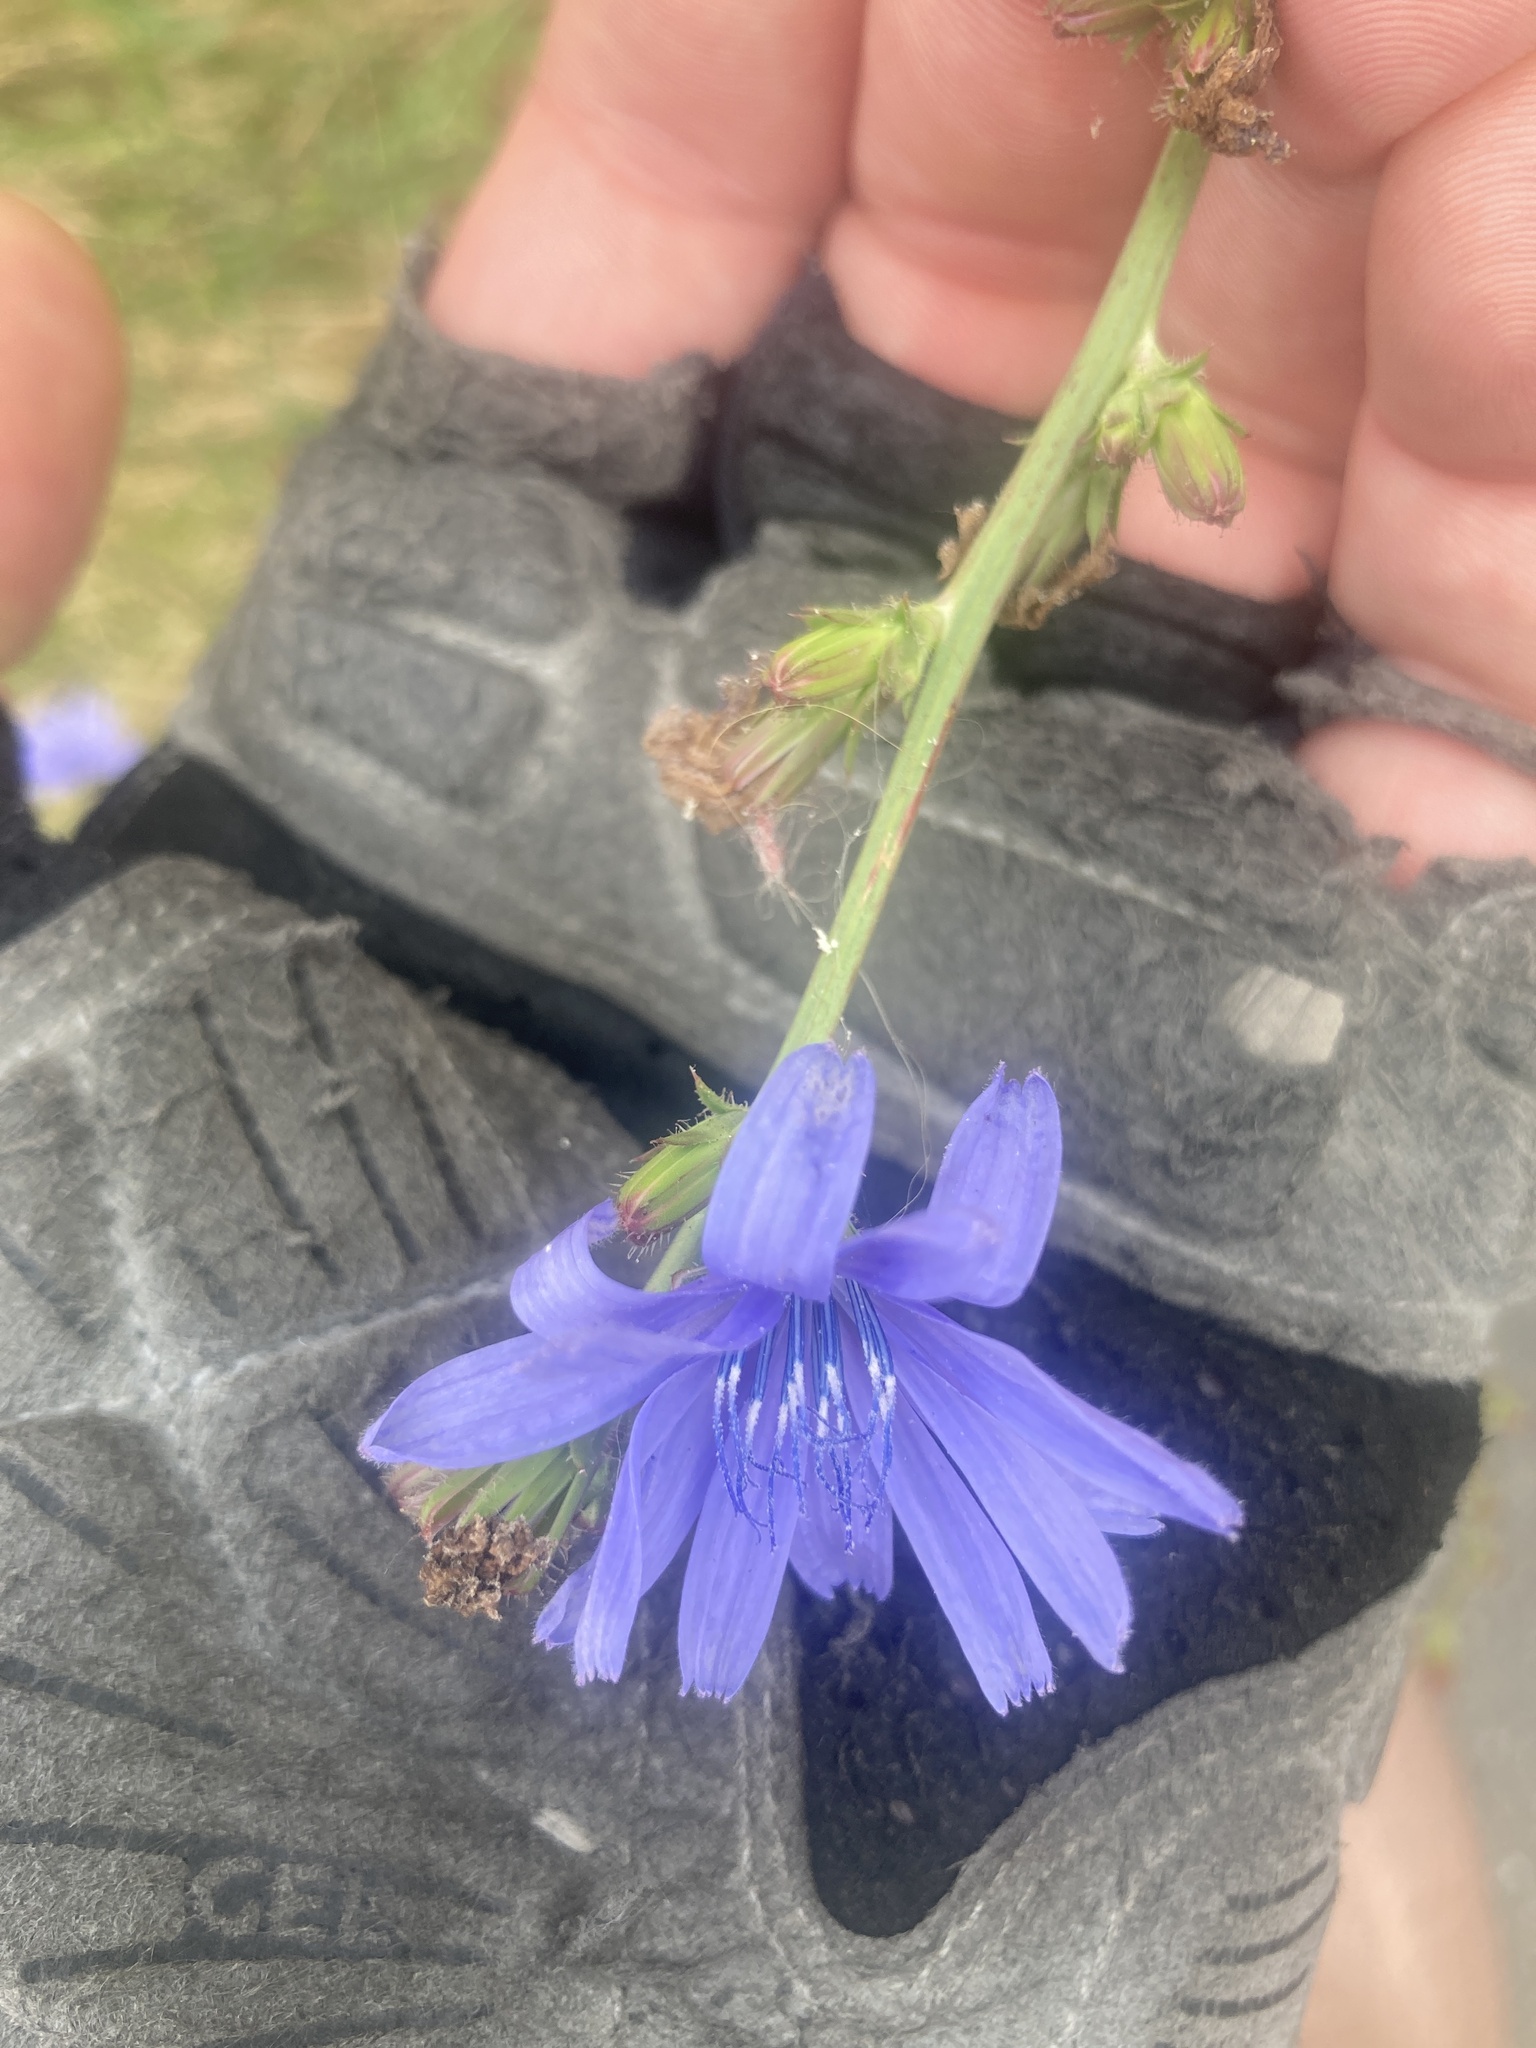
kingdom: Plantae
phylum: Tracheophyta
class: Magnoliopsida
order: Asterales
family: Asteraceae
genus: Cichorium
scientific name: Cichorium intybus
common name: Chicory
